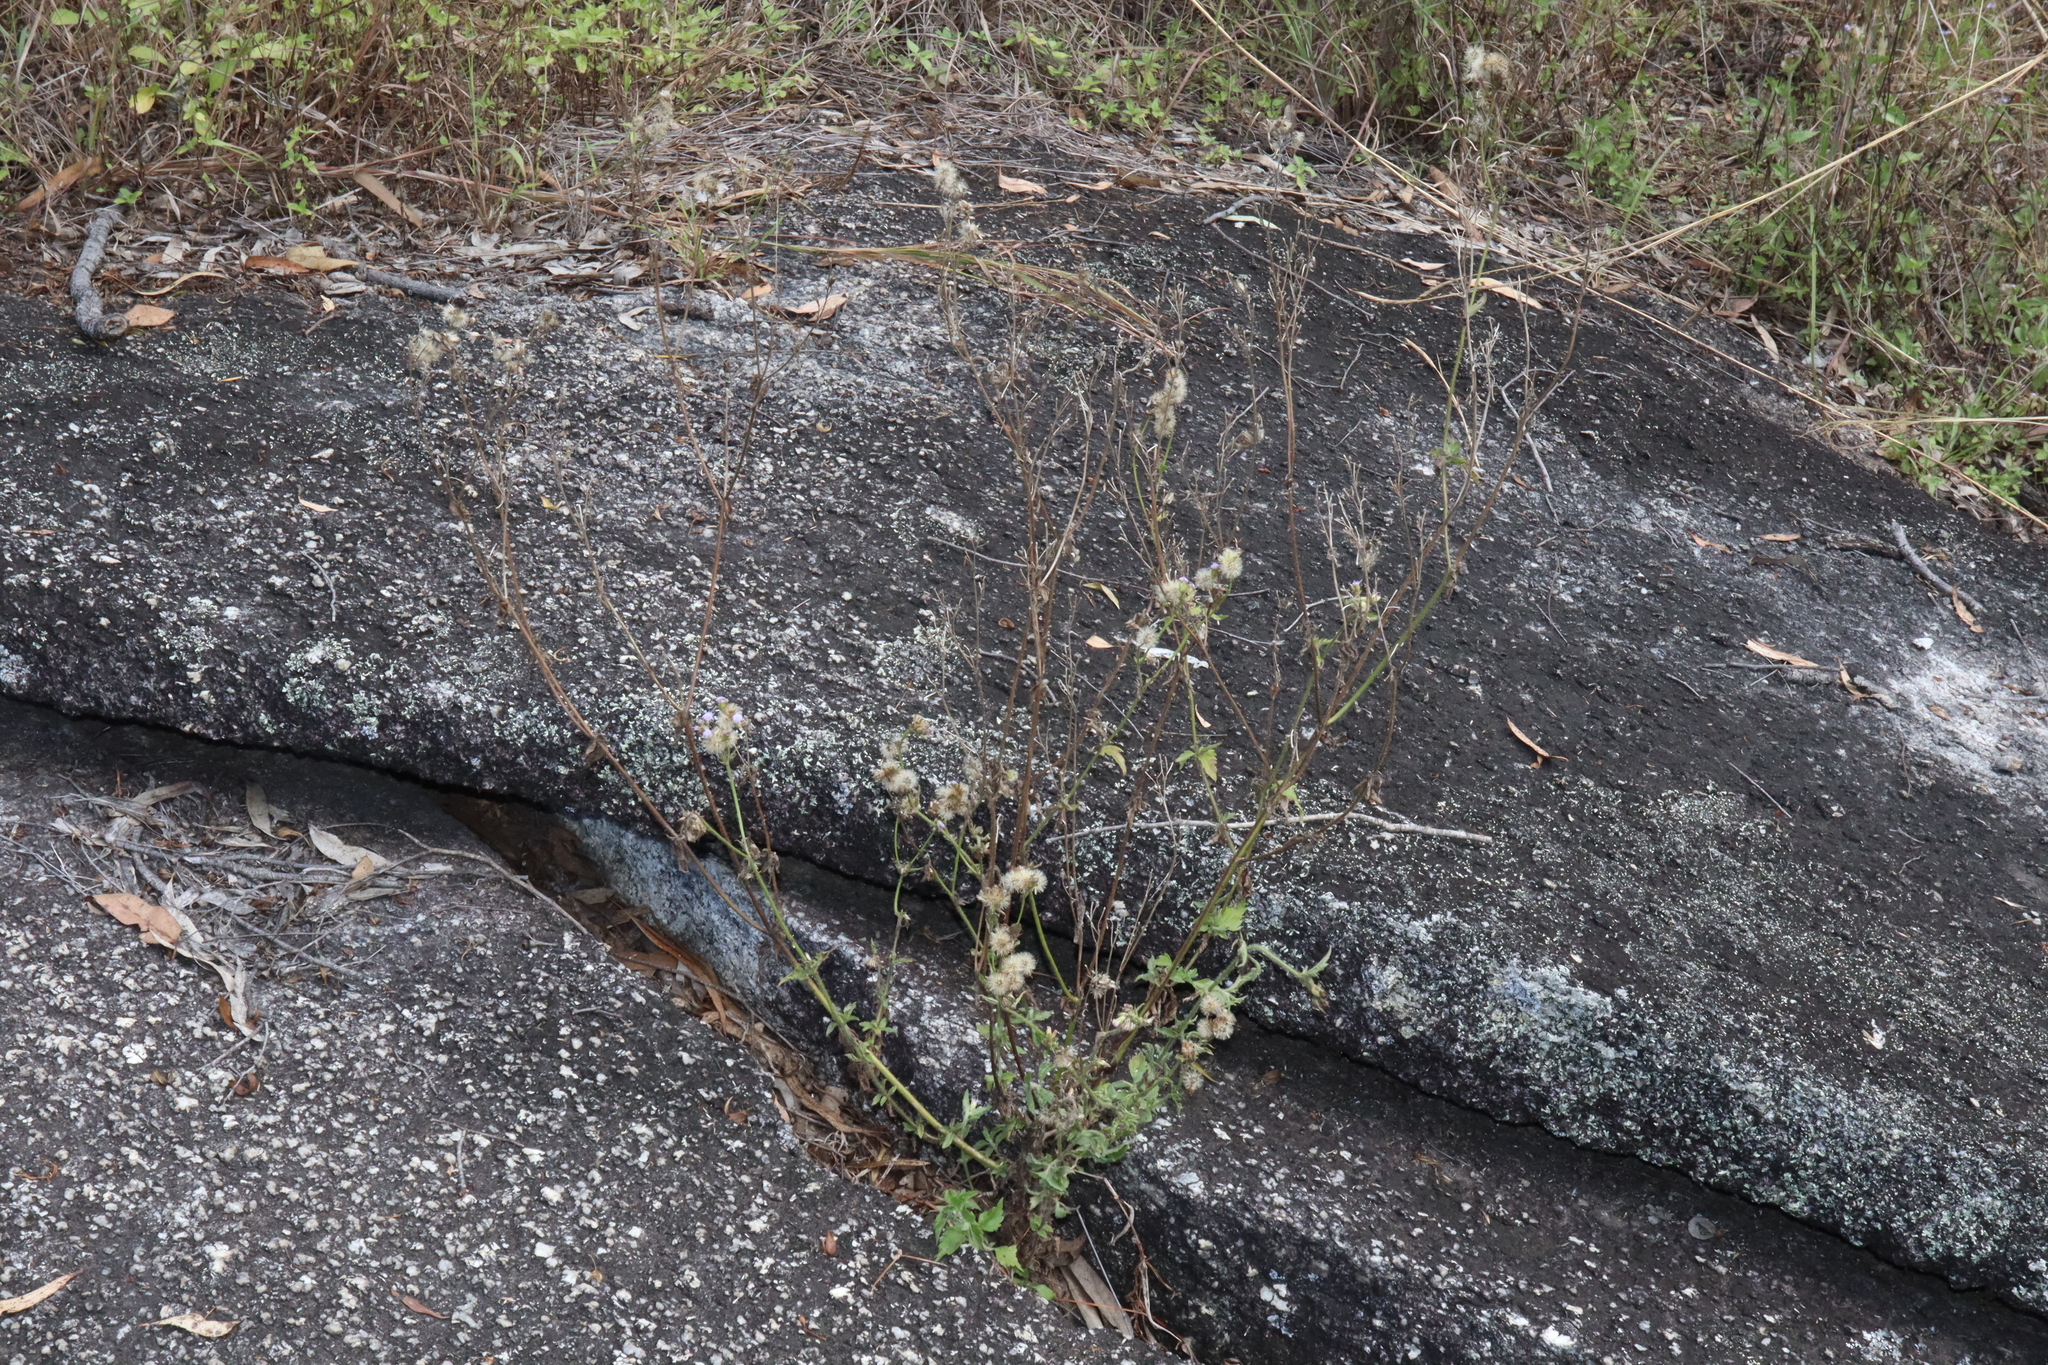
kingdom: Plantae
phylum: Tracheophyta
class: Magnoliopsida
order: Asterales
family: Asteraceae
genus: Praxelis
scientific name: Praxelis clematidea
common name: Praxelis
